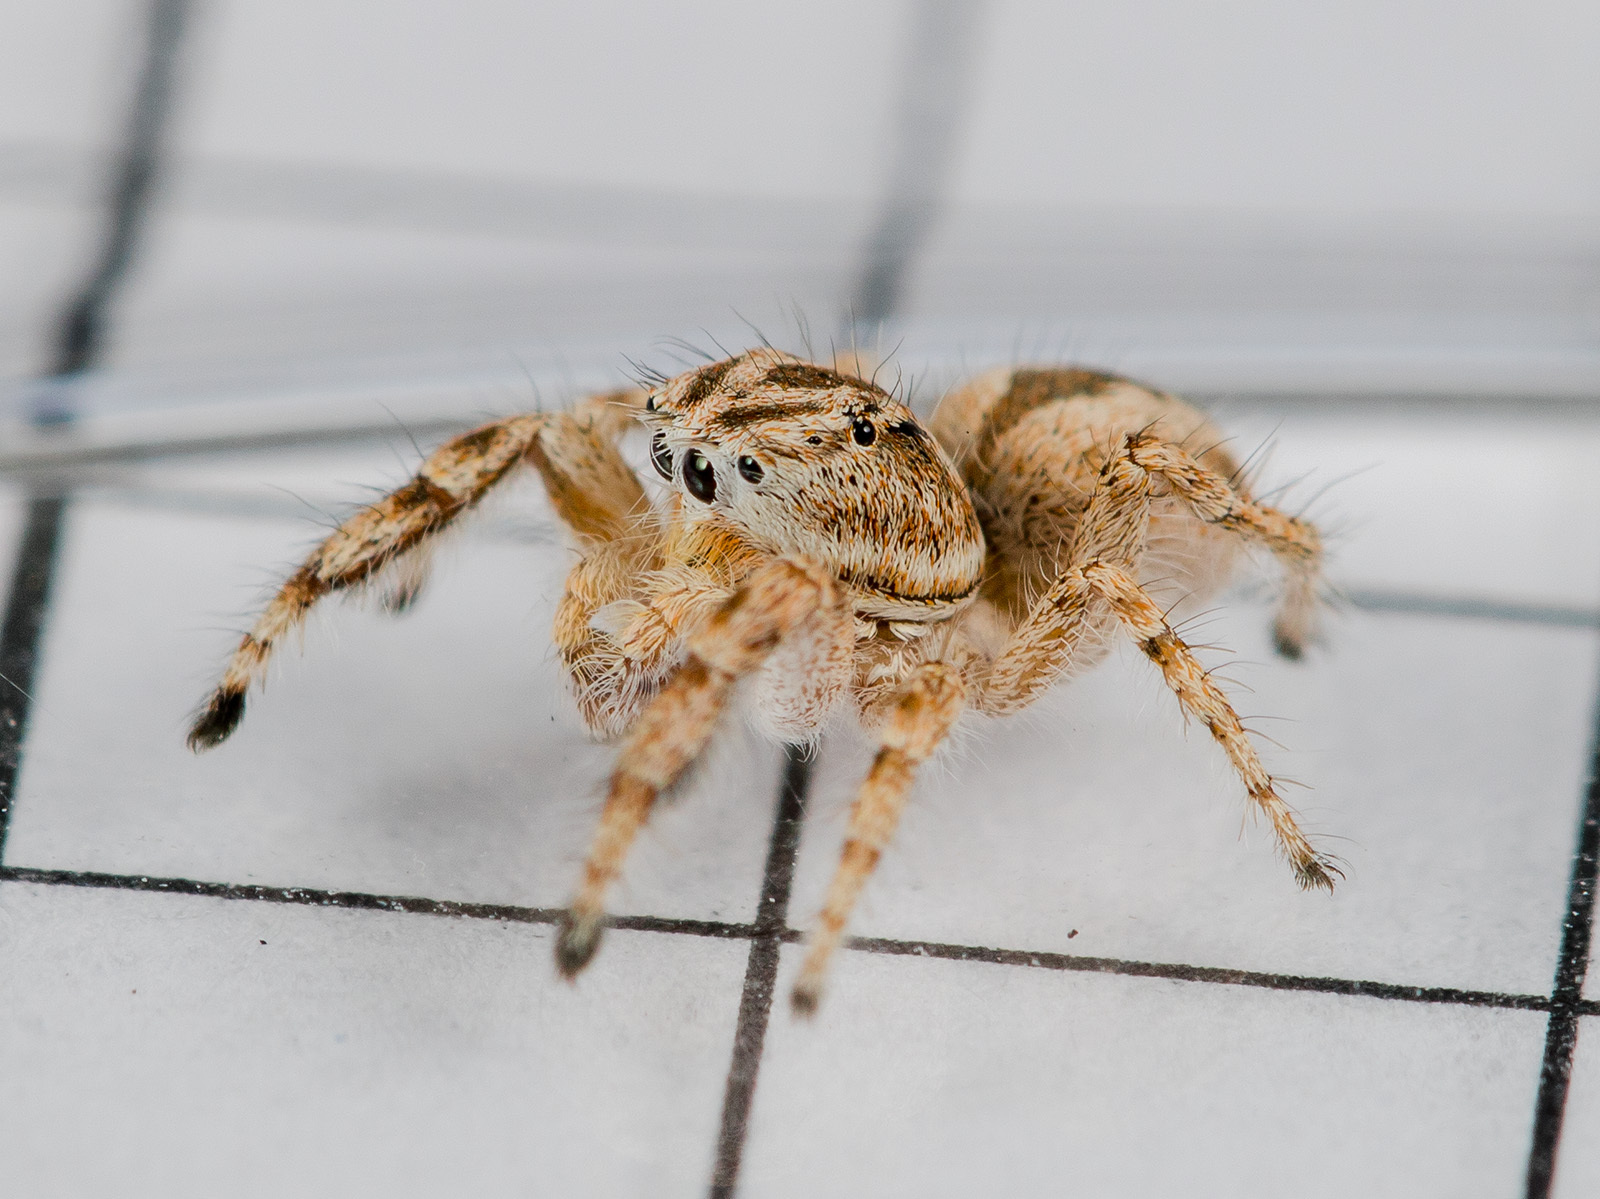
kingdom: Animalia
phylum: Arthropoda
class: Arachnida
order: Araneae
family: Salticidae
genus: Pseudomogrus
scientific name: Pseudomogrus guseinovi
